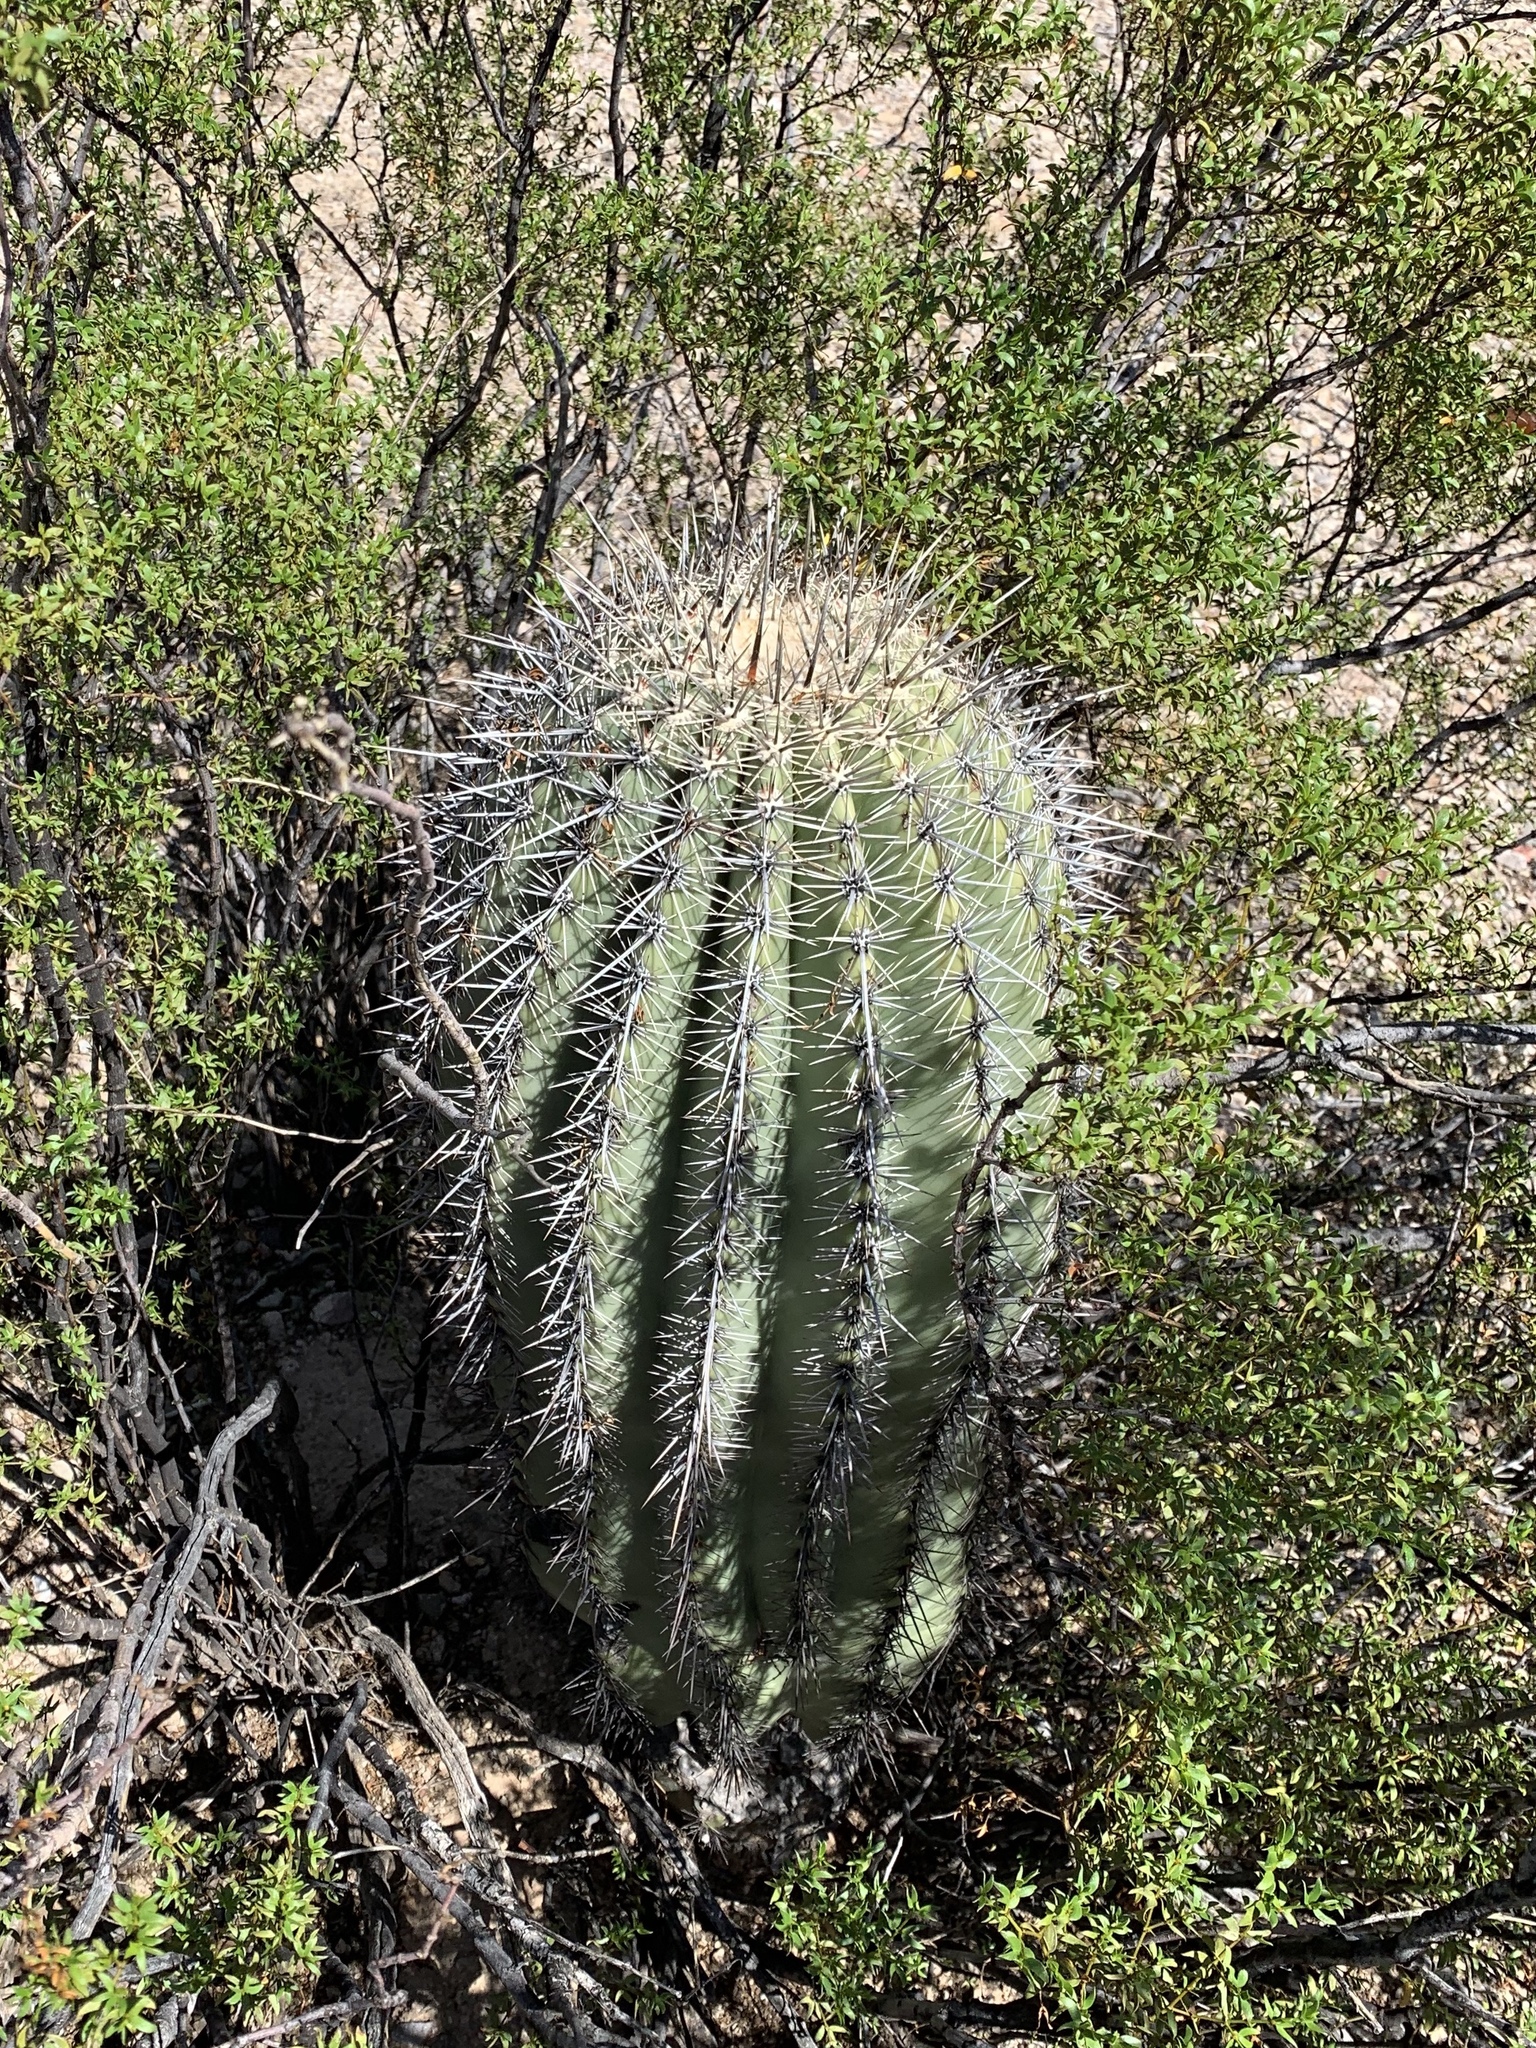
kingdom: Plantae
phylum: Tracheophyta
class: Magnoliopsida
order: Caryophyllales
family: Cactaceae
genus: Carnegiea
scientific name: Carnegiea gigantea
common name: Saguaro
